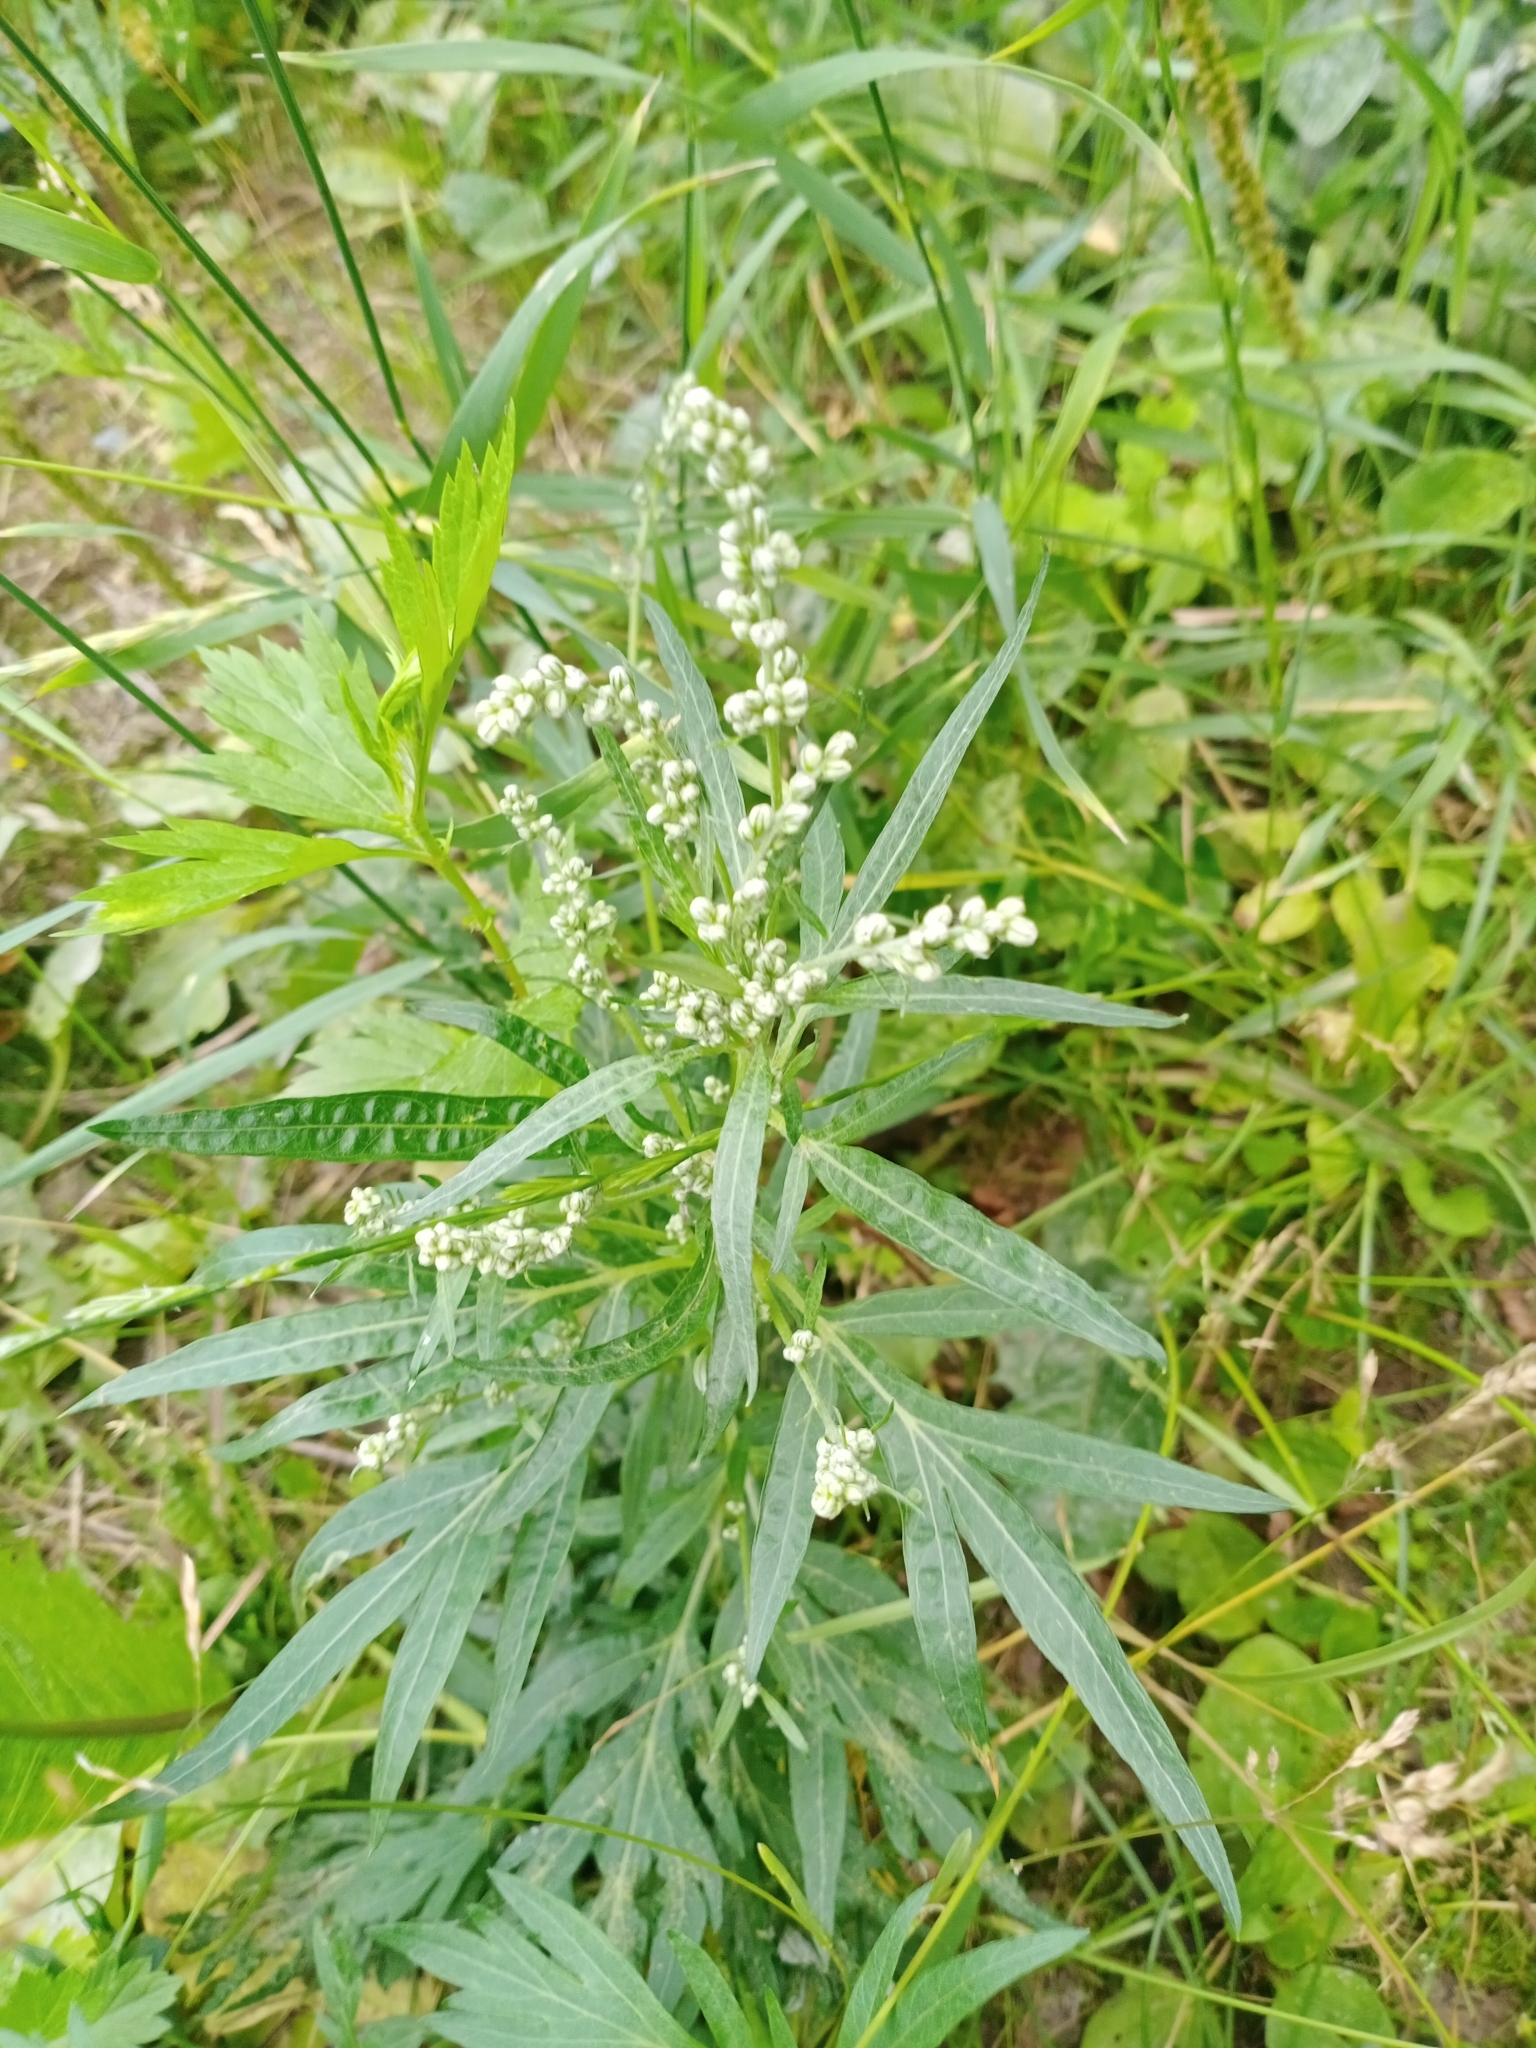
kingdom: Plantae
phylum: Tracheophyta
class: Magnoliopsida
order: Asterales
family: Asteraceae
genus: Artemisia
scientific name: Artemisia vulgaris
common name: Mugwort
